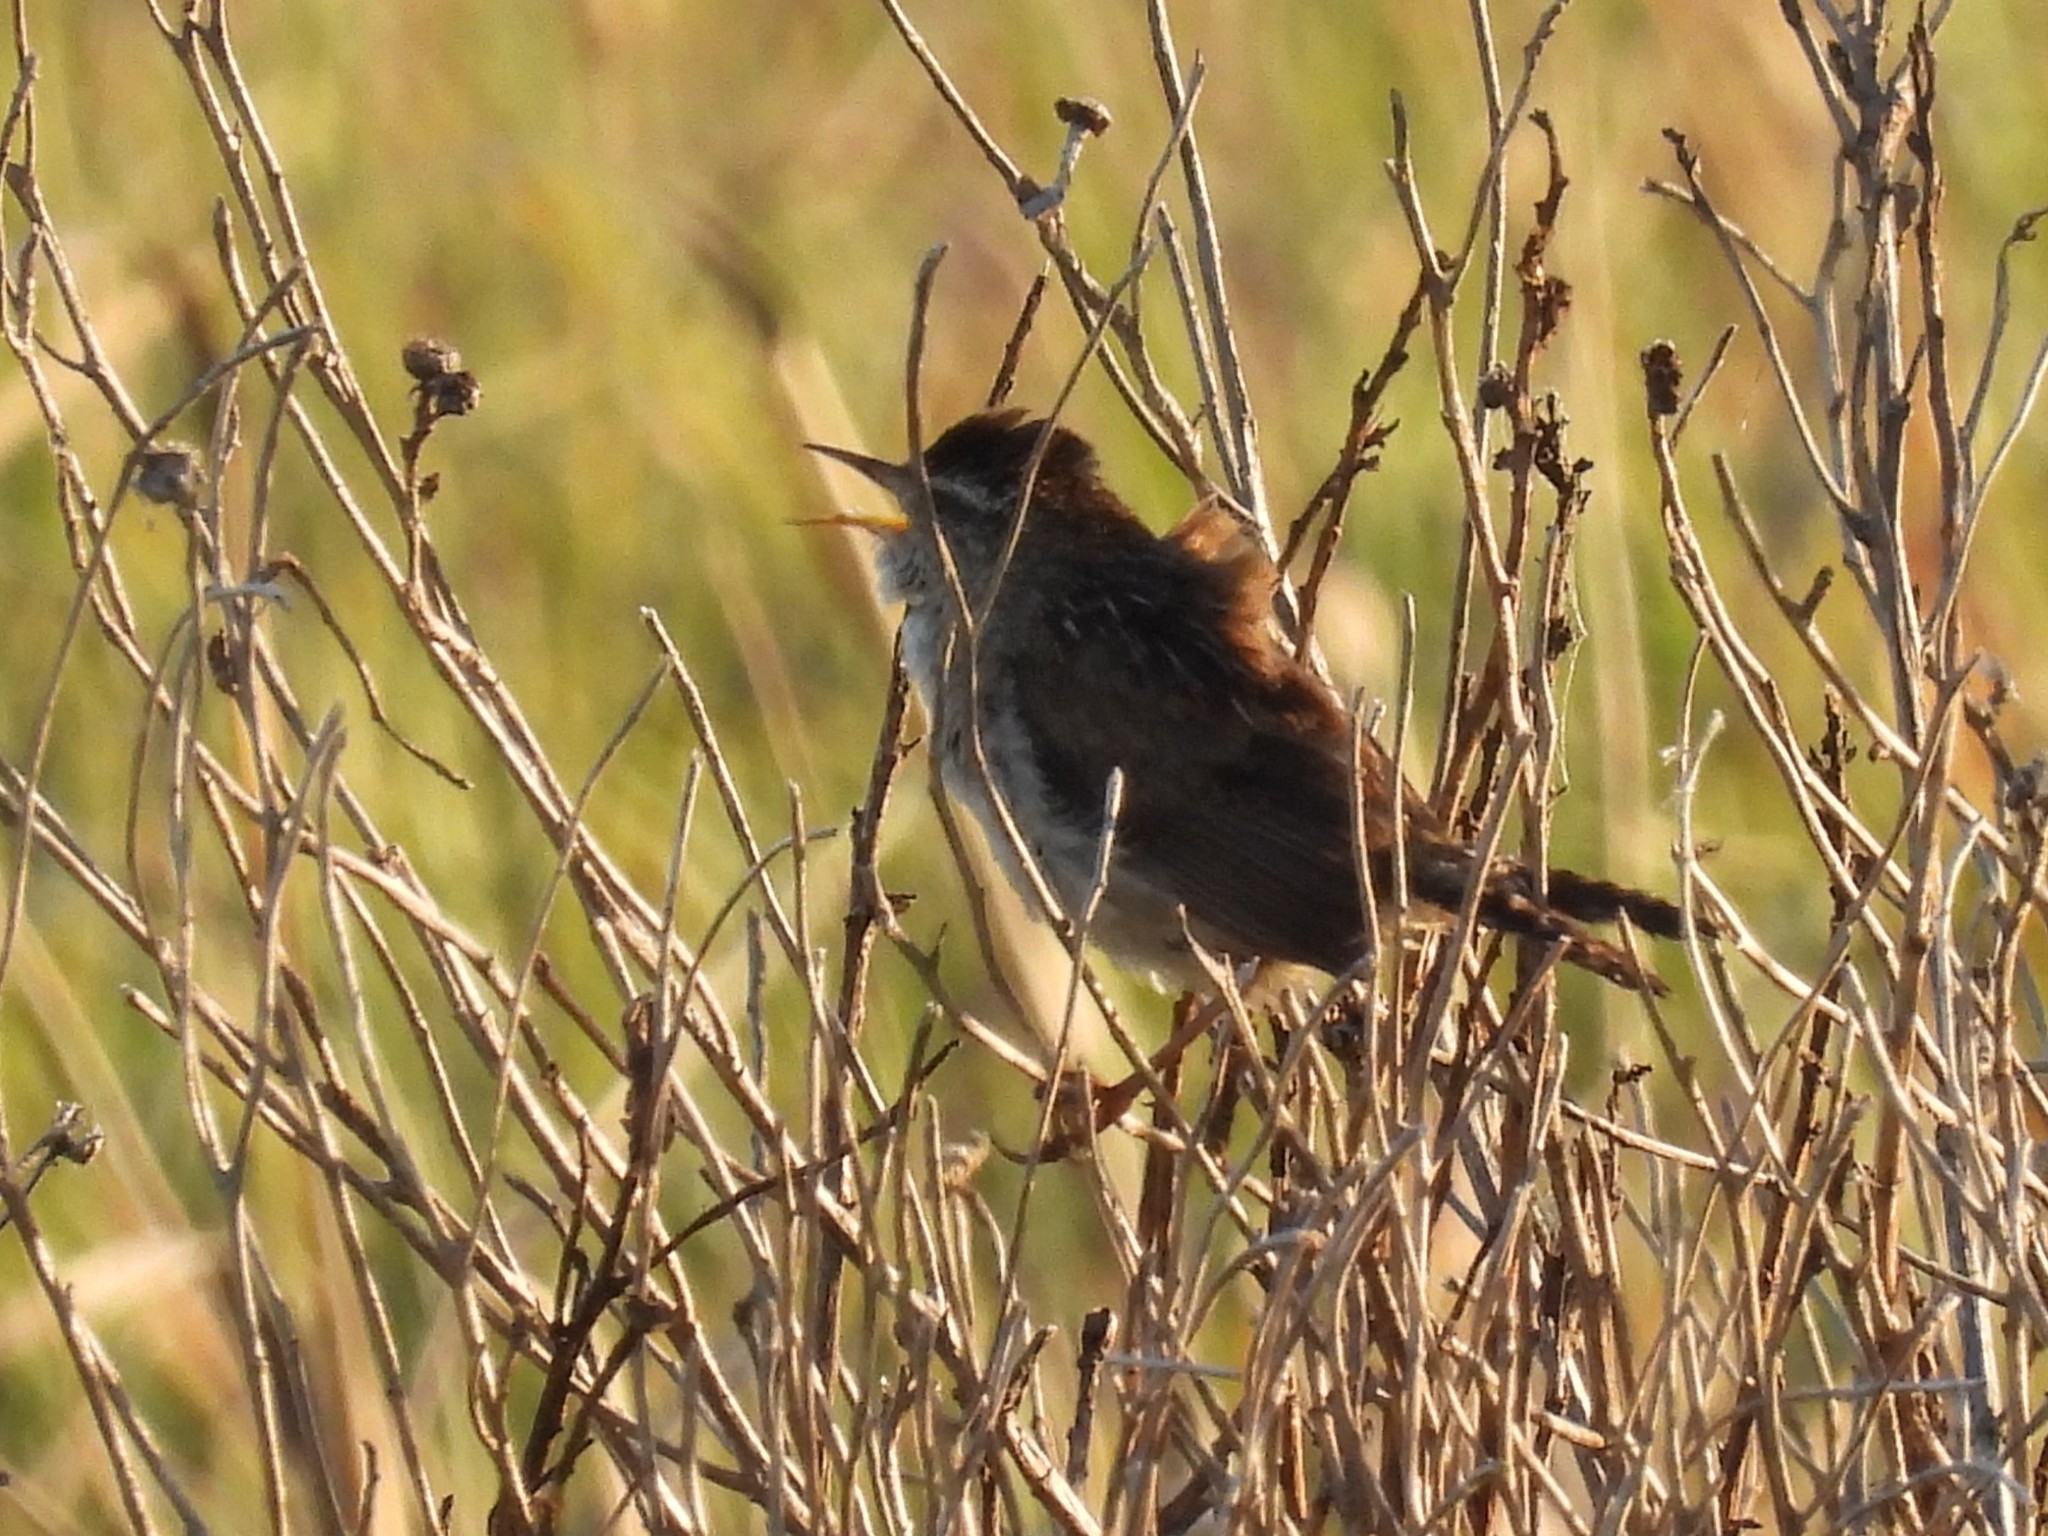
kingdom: Animalia
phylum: Chordata
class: Aves
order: Passeriformes
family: Troglodytidae
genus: Cistothorus
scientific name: Cistothorus palustris
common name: Marsh wren
